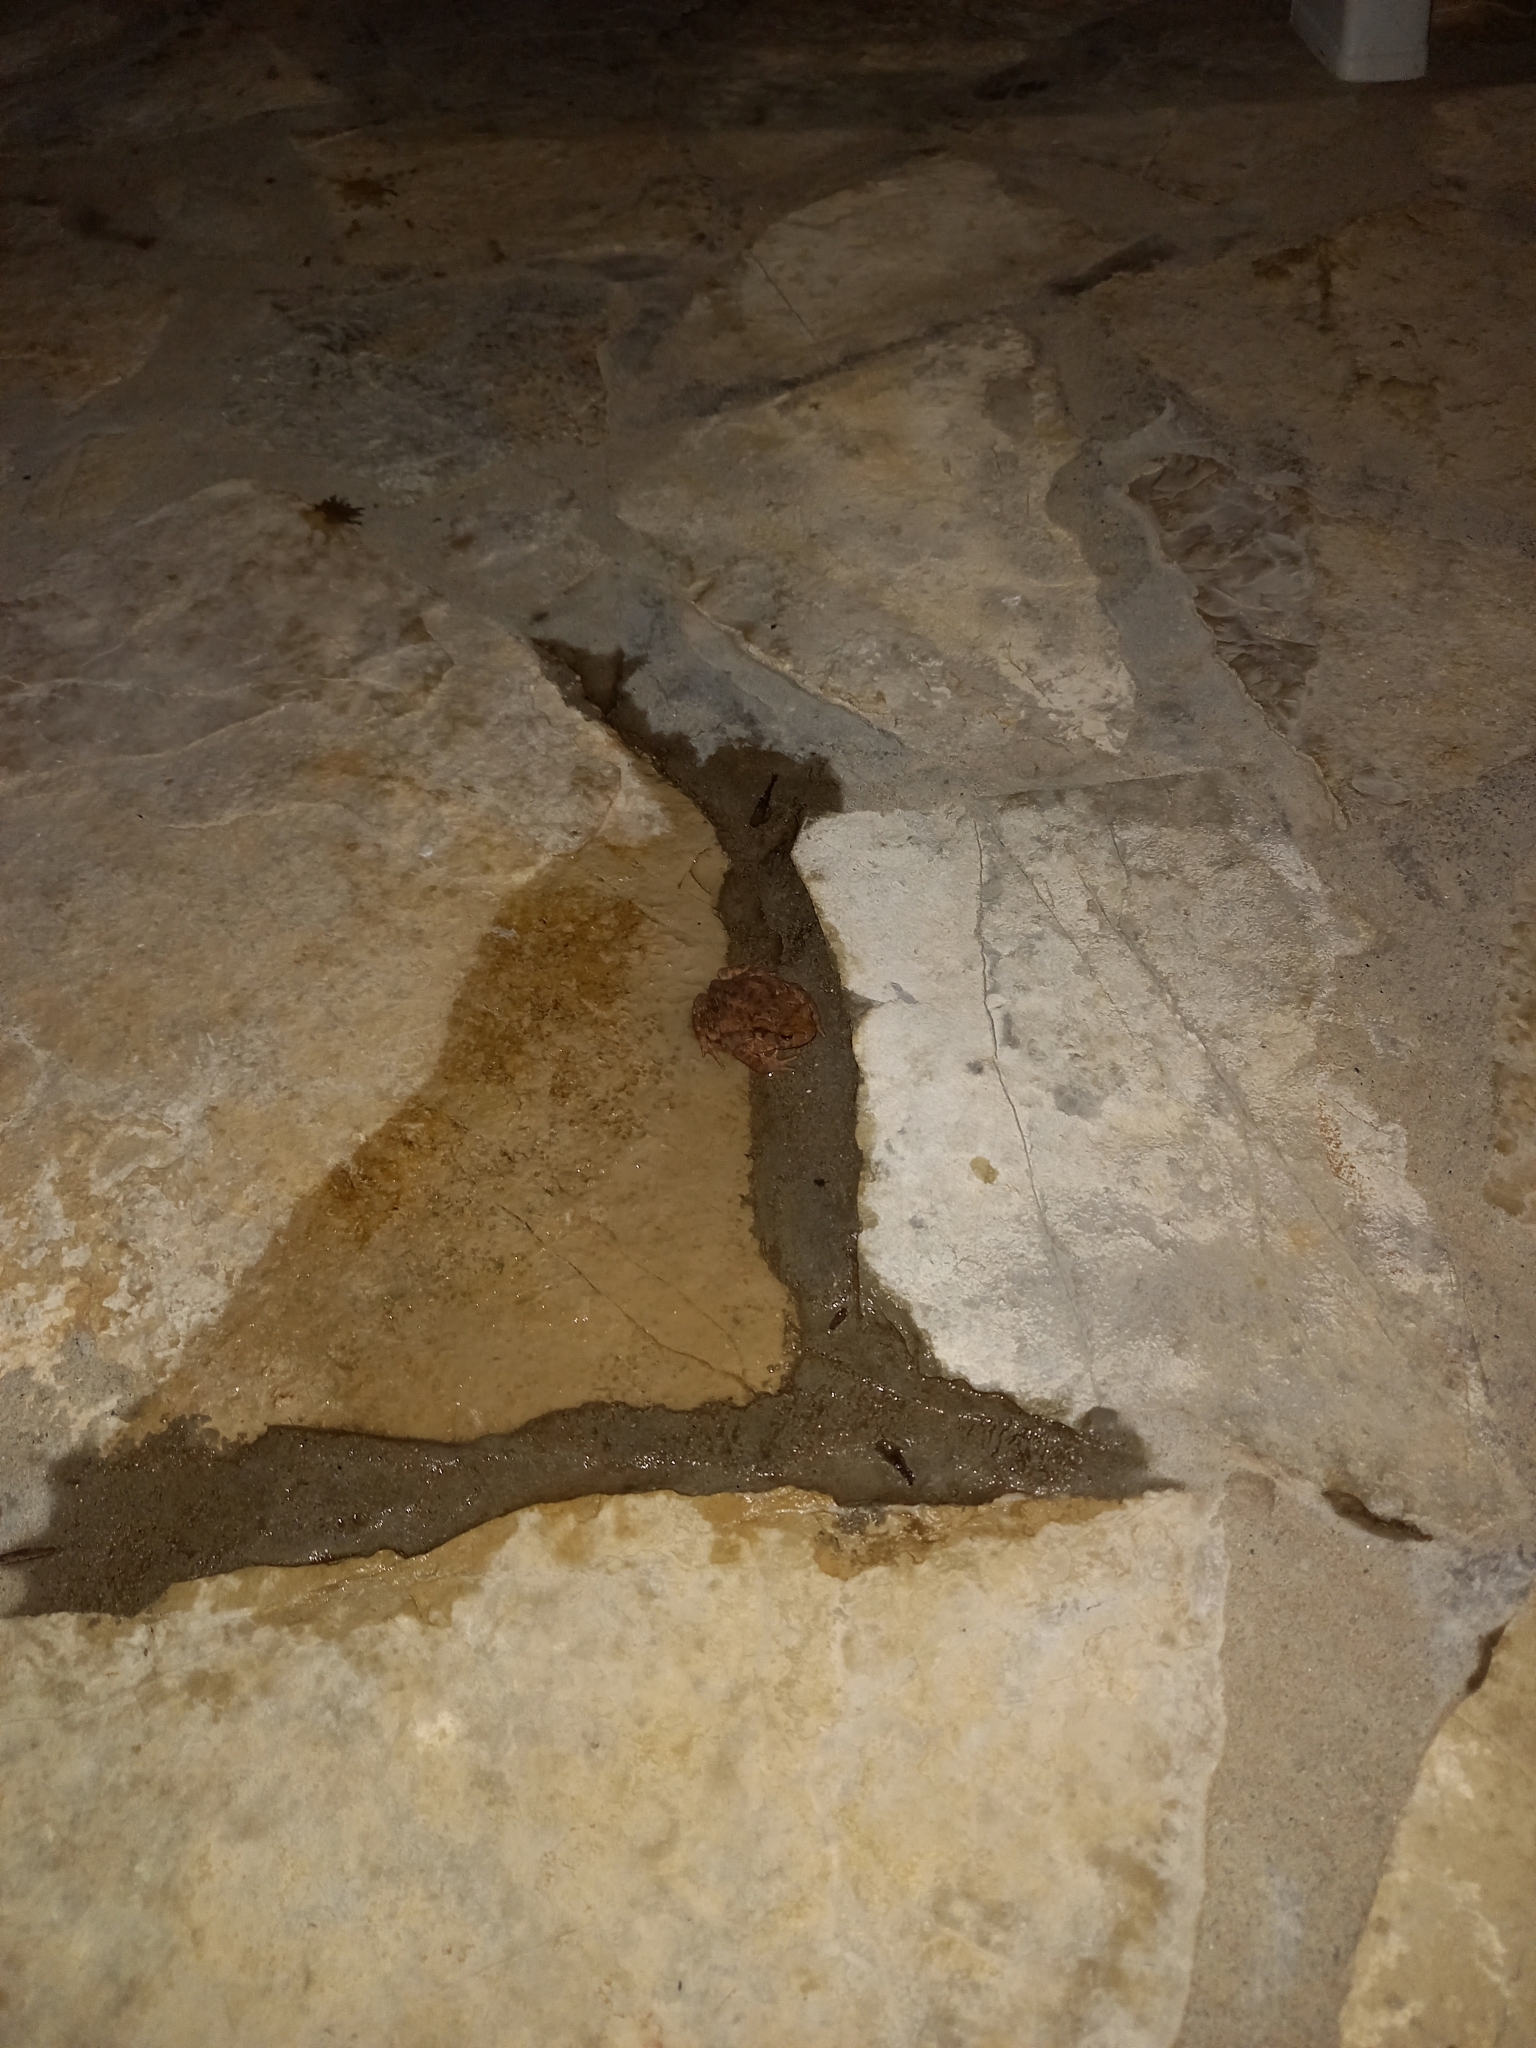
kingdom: Animalia
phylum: Chordata
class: Amphibia
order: Anura
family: Bufonidae
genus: Bufo
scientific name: Bufo bufo
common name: Common toad
